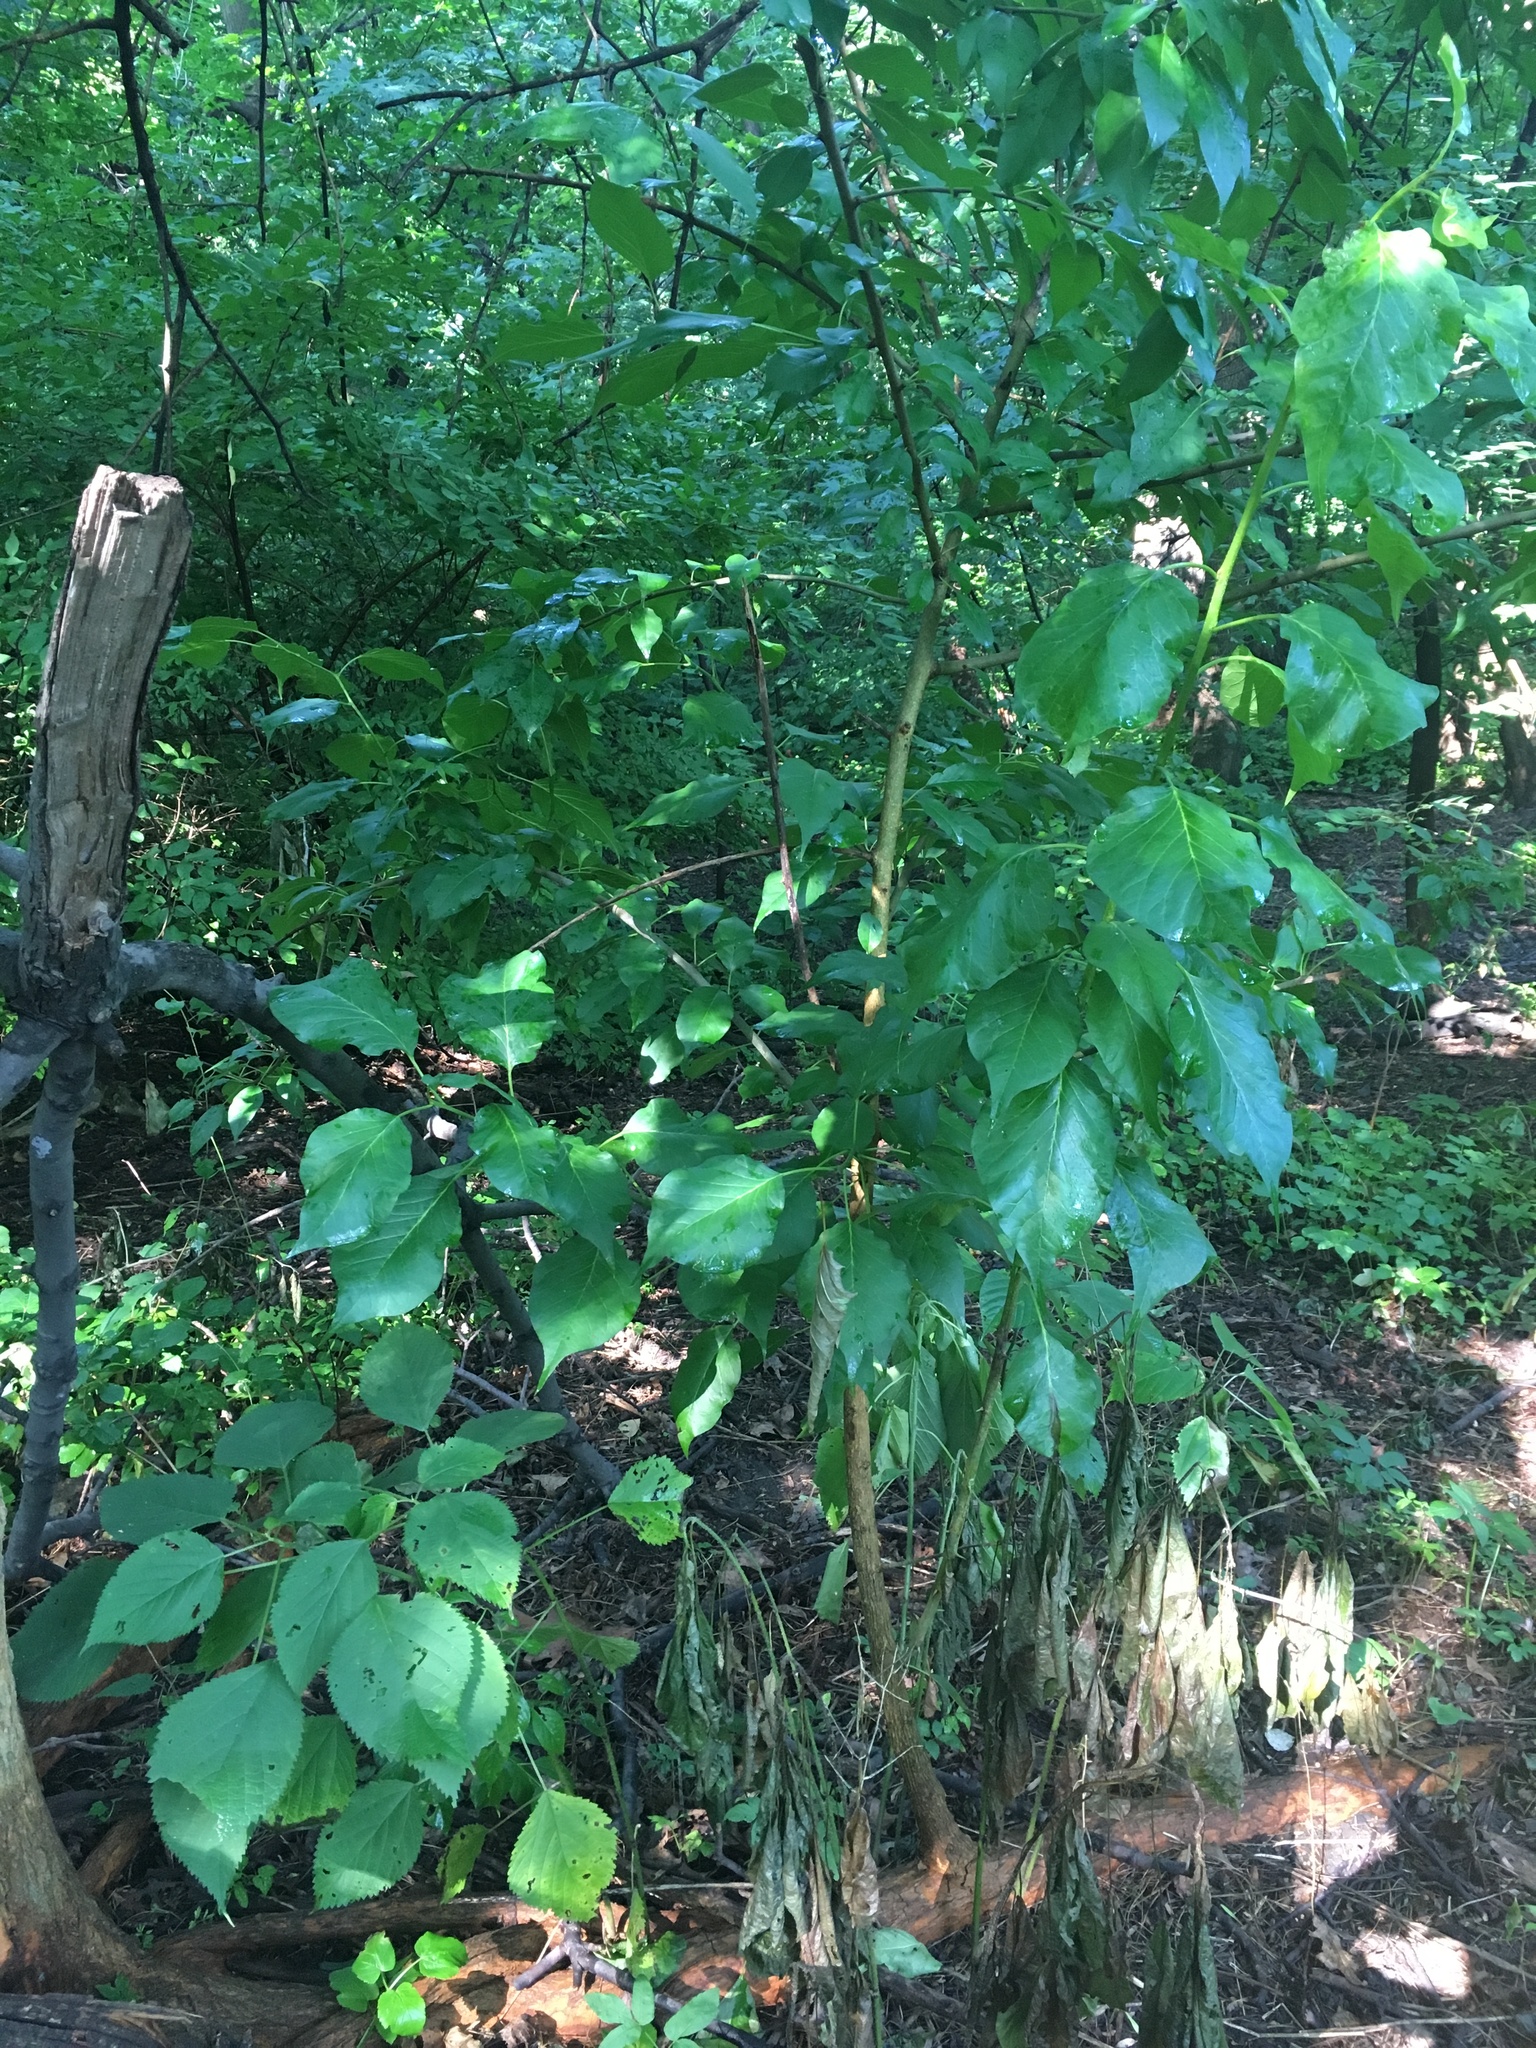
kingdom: Plantae
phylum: Tracheophyta
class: Magnoliopsida
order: Rosales
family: Moraceae
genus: Maclura
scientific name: Maclura pomifera
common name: Osage-orange
